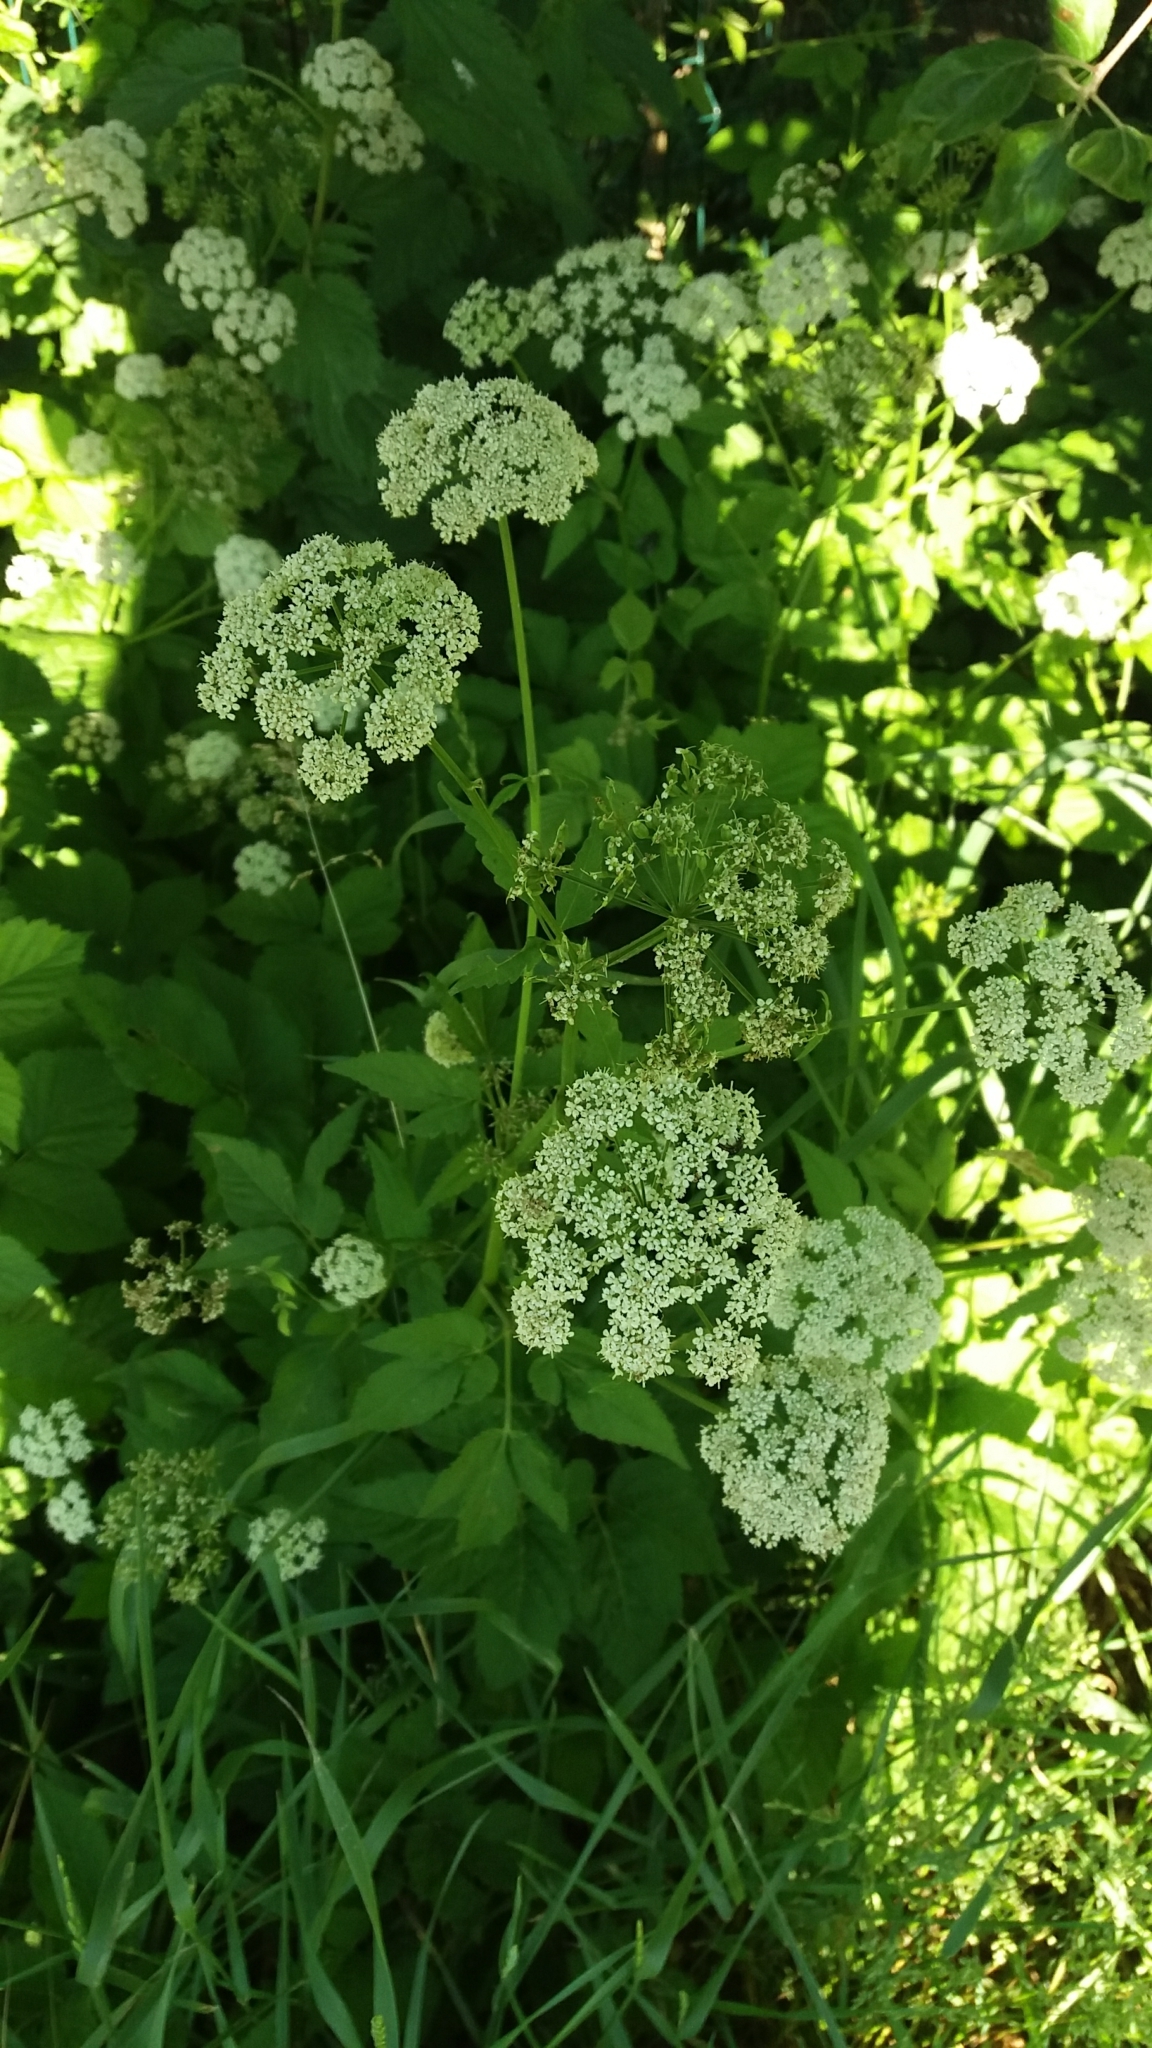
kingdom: Plantae
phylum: Tracheophyta
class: Magnoliopsida
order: Apiales
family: Apiaceae
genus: Aegopodium
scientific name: Aegopodium podagraria
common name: Ground-elder
